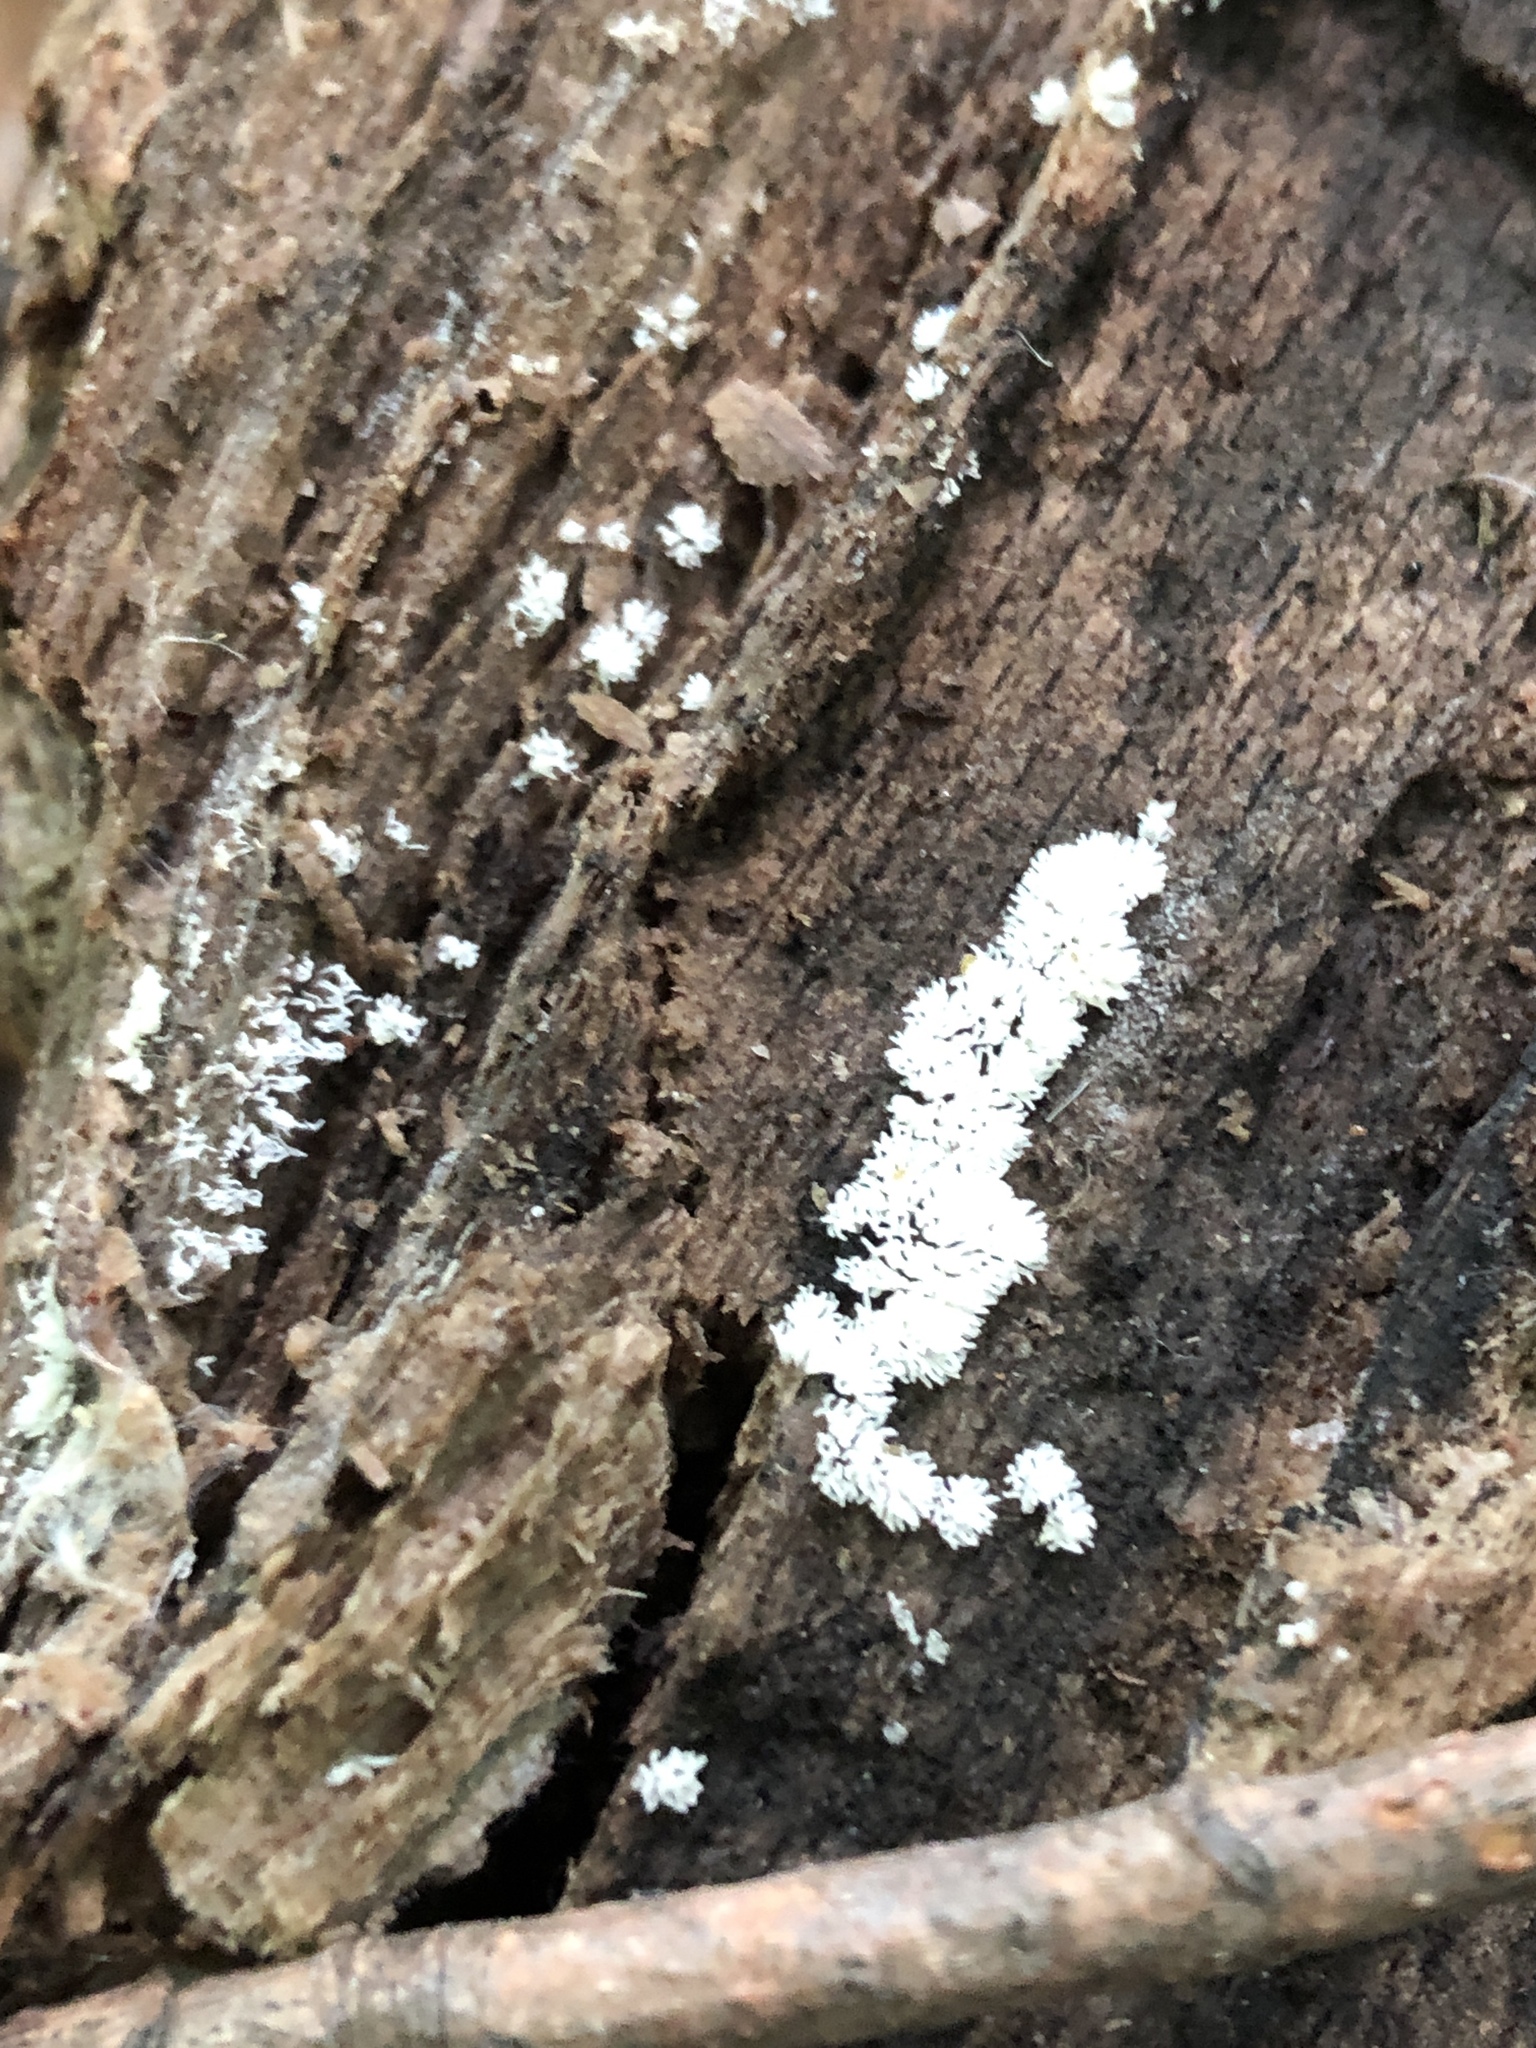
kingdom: Protozoa
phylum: Mycetozoa
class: Protosteliomycetes
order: Ceratiomyxales
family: Ceratiomyxaceae
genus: Ceratiomyxa
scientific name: Ceratiomyxa fruticulosa
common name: Honeycomb coral slime mold
